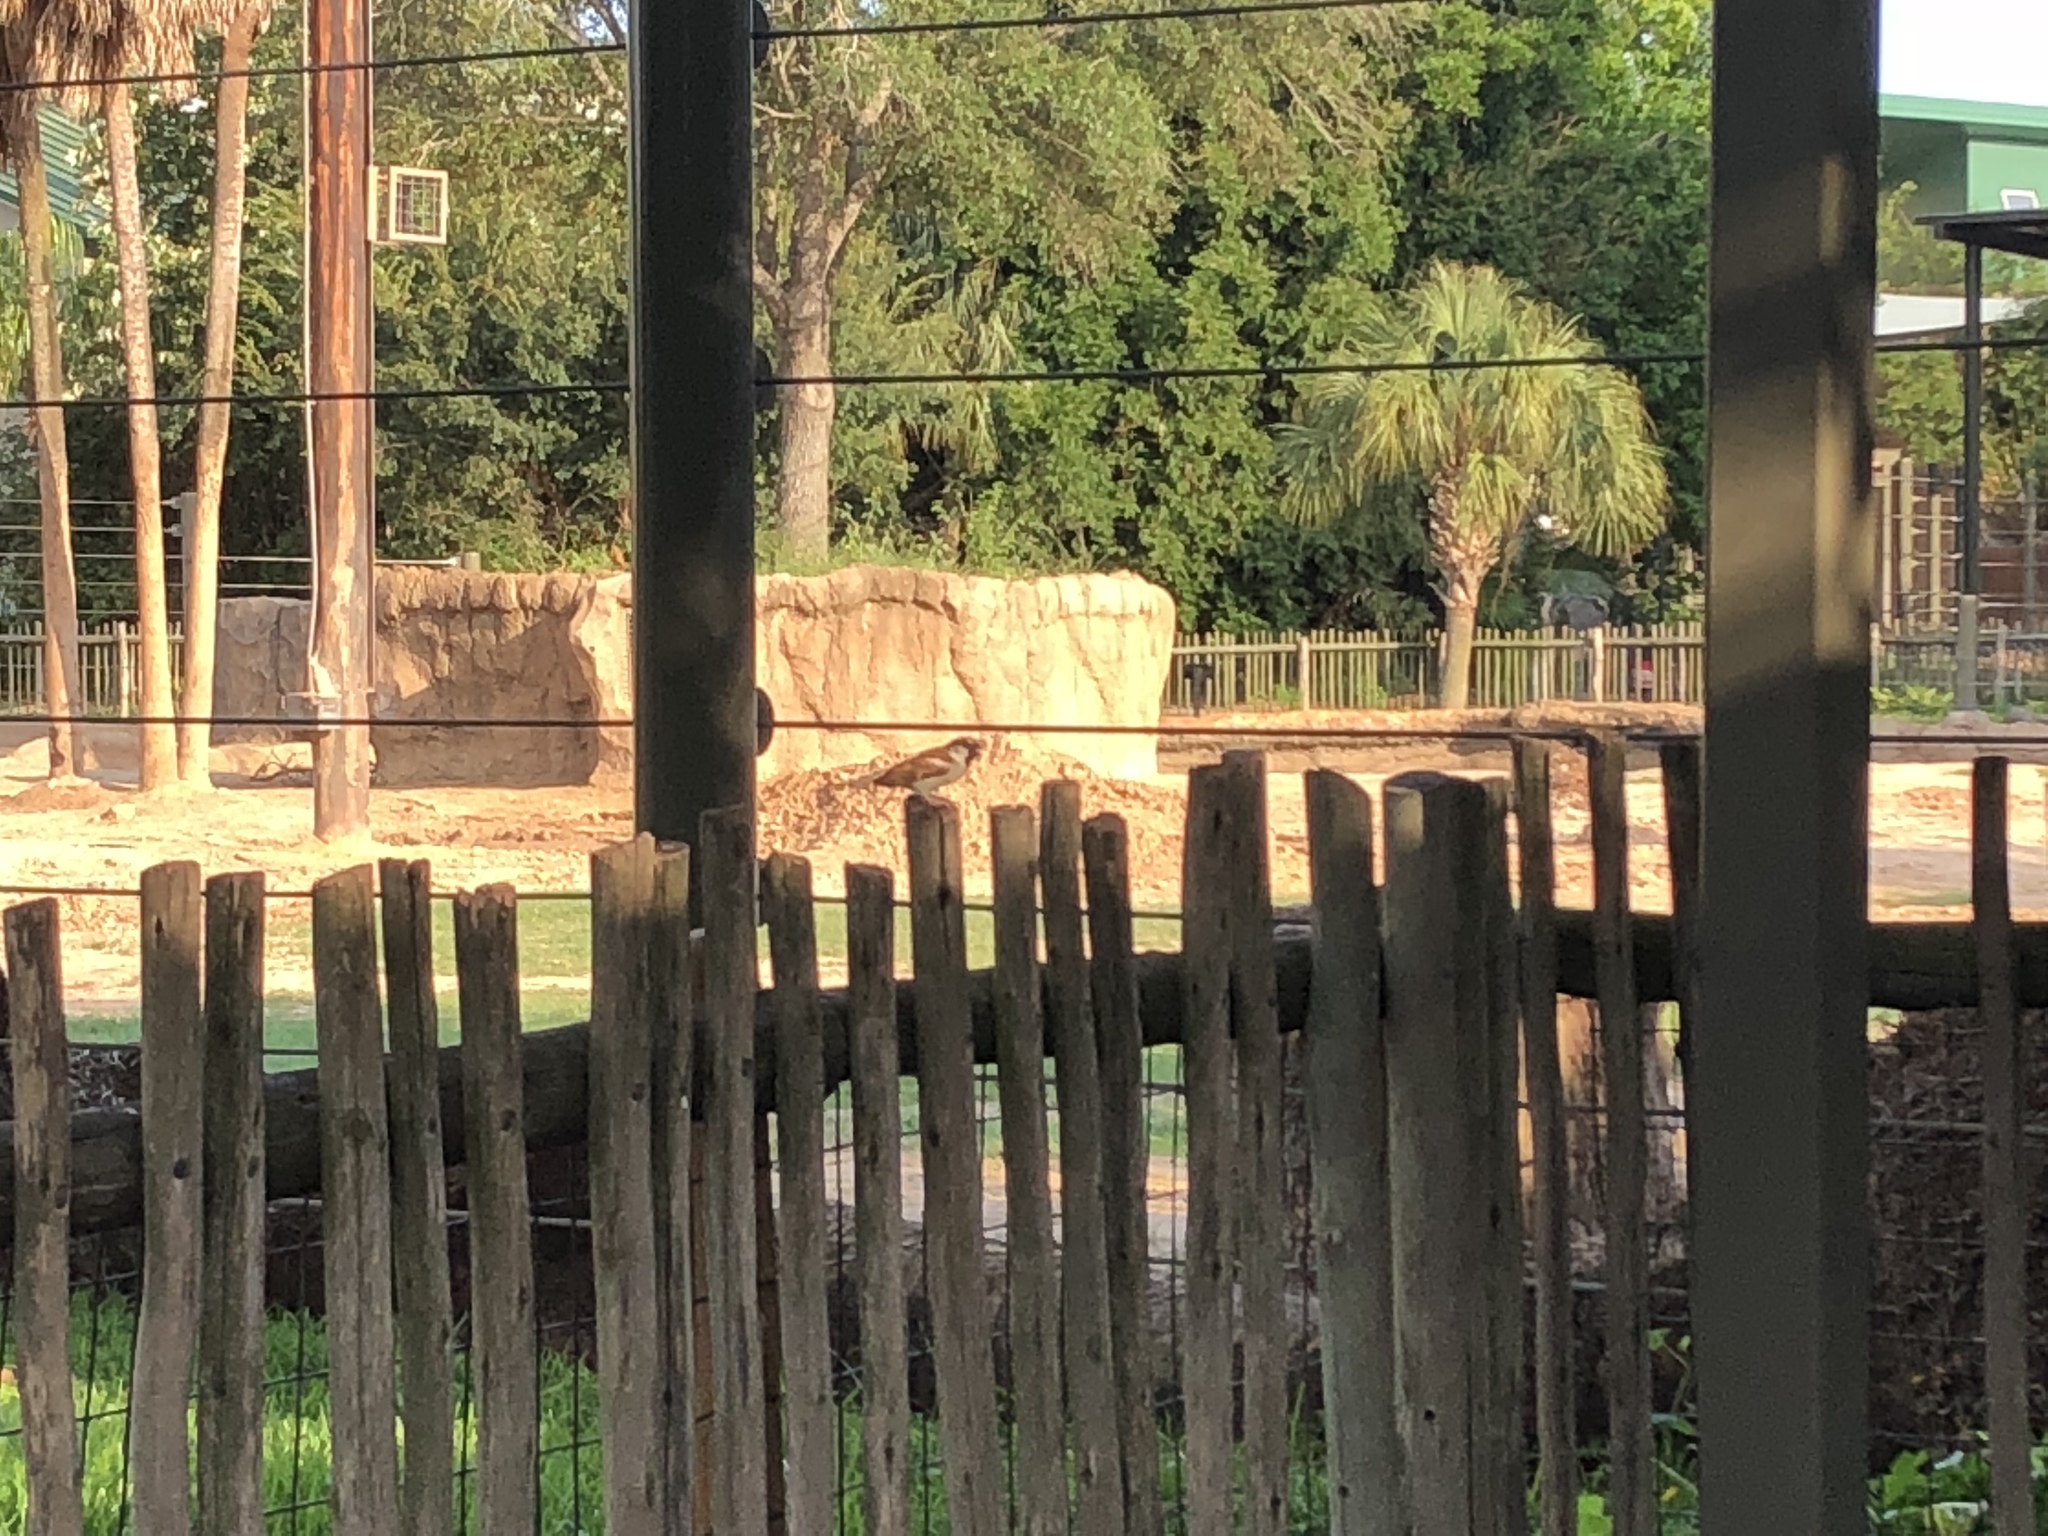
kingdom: Animalia
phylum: Chordata
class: Aves
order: Passeriformes
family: Passeridae
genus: Passer
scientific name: Passer domesticus
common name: House sparrow
